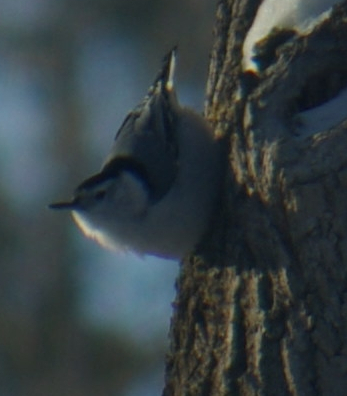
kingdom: Animalia
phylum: Chordata
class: Aves
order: Passeriformes
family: Sittidae
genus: Sitta
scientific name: Sitta carolinensis
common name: White-breasted nuthatch
